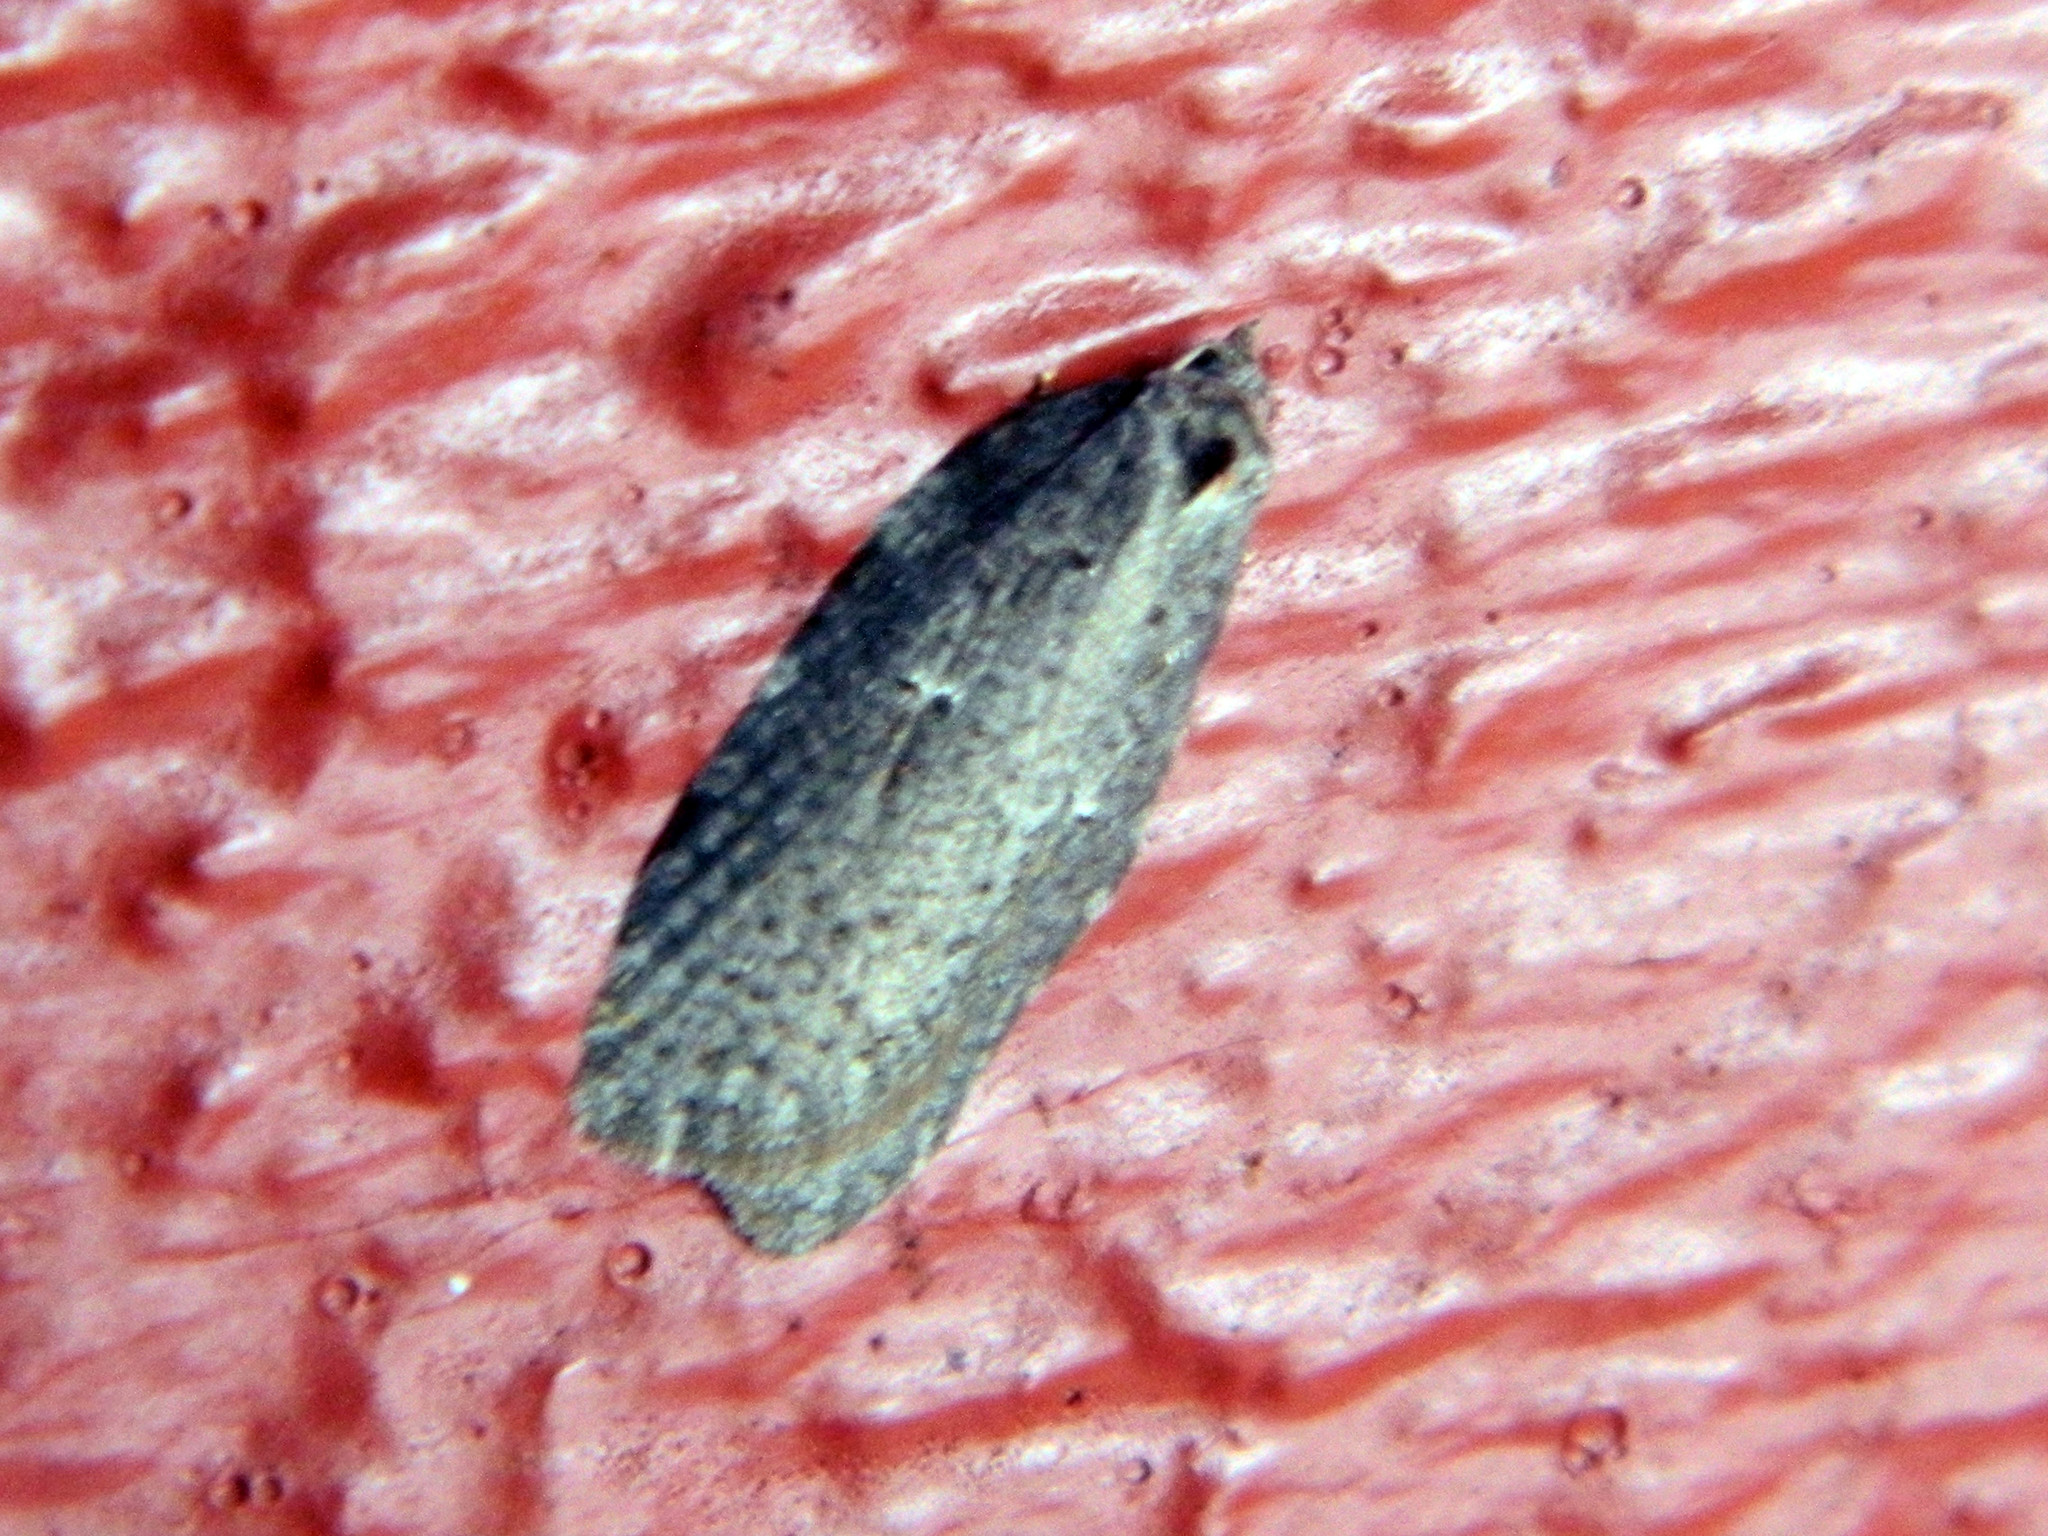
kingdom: Animalia
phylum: Arthropoda
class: Insecta
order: Lepidoptera
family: Tortricidae
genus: Acleris
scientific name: Acleris caliginosana
